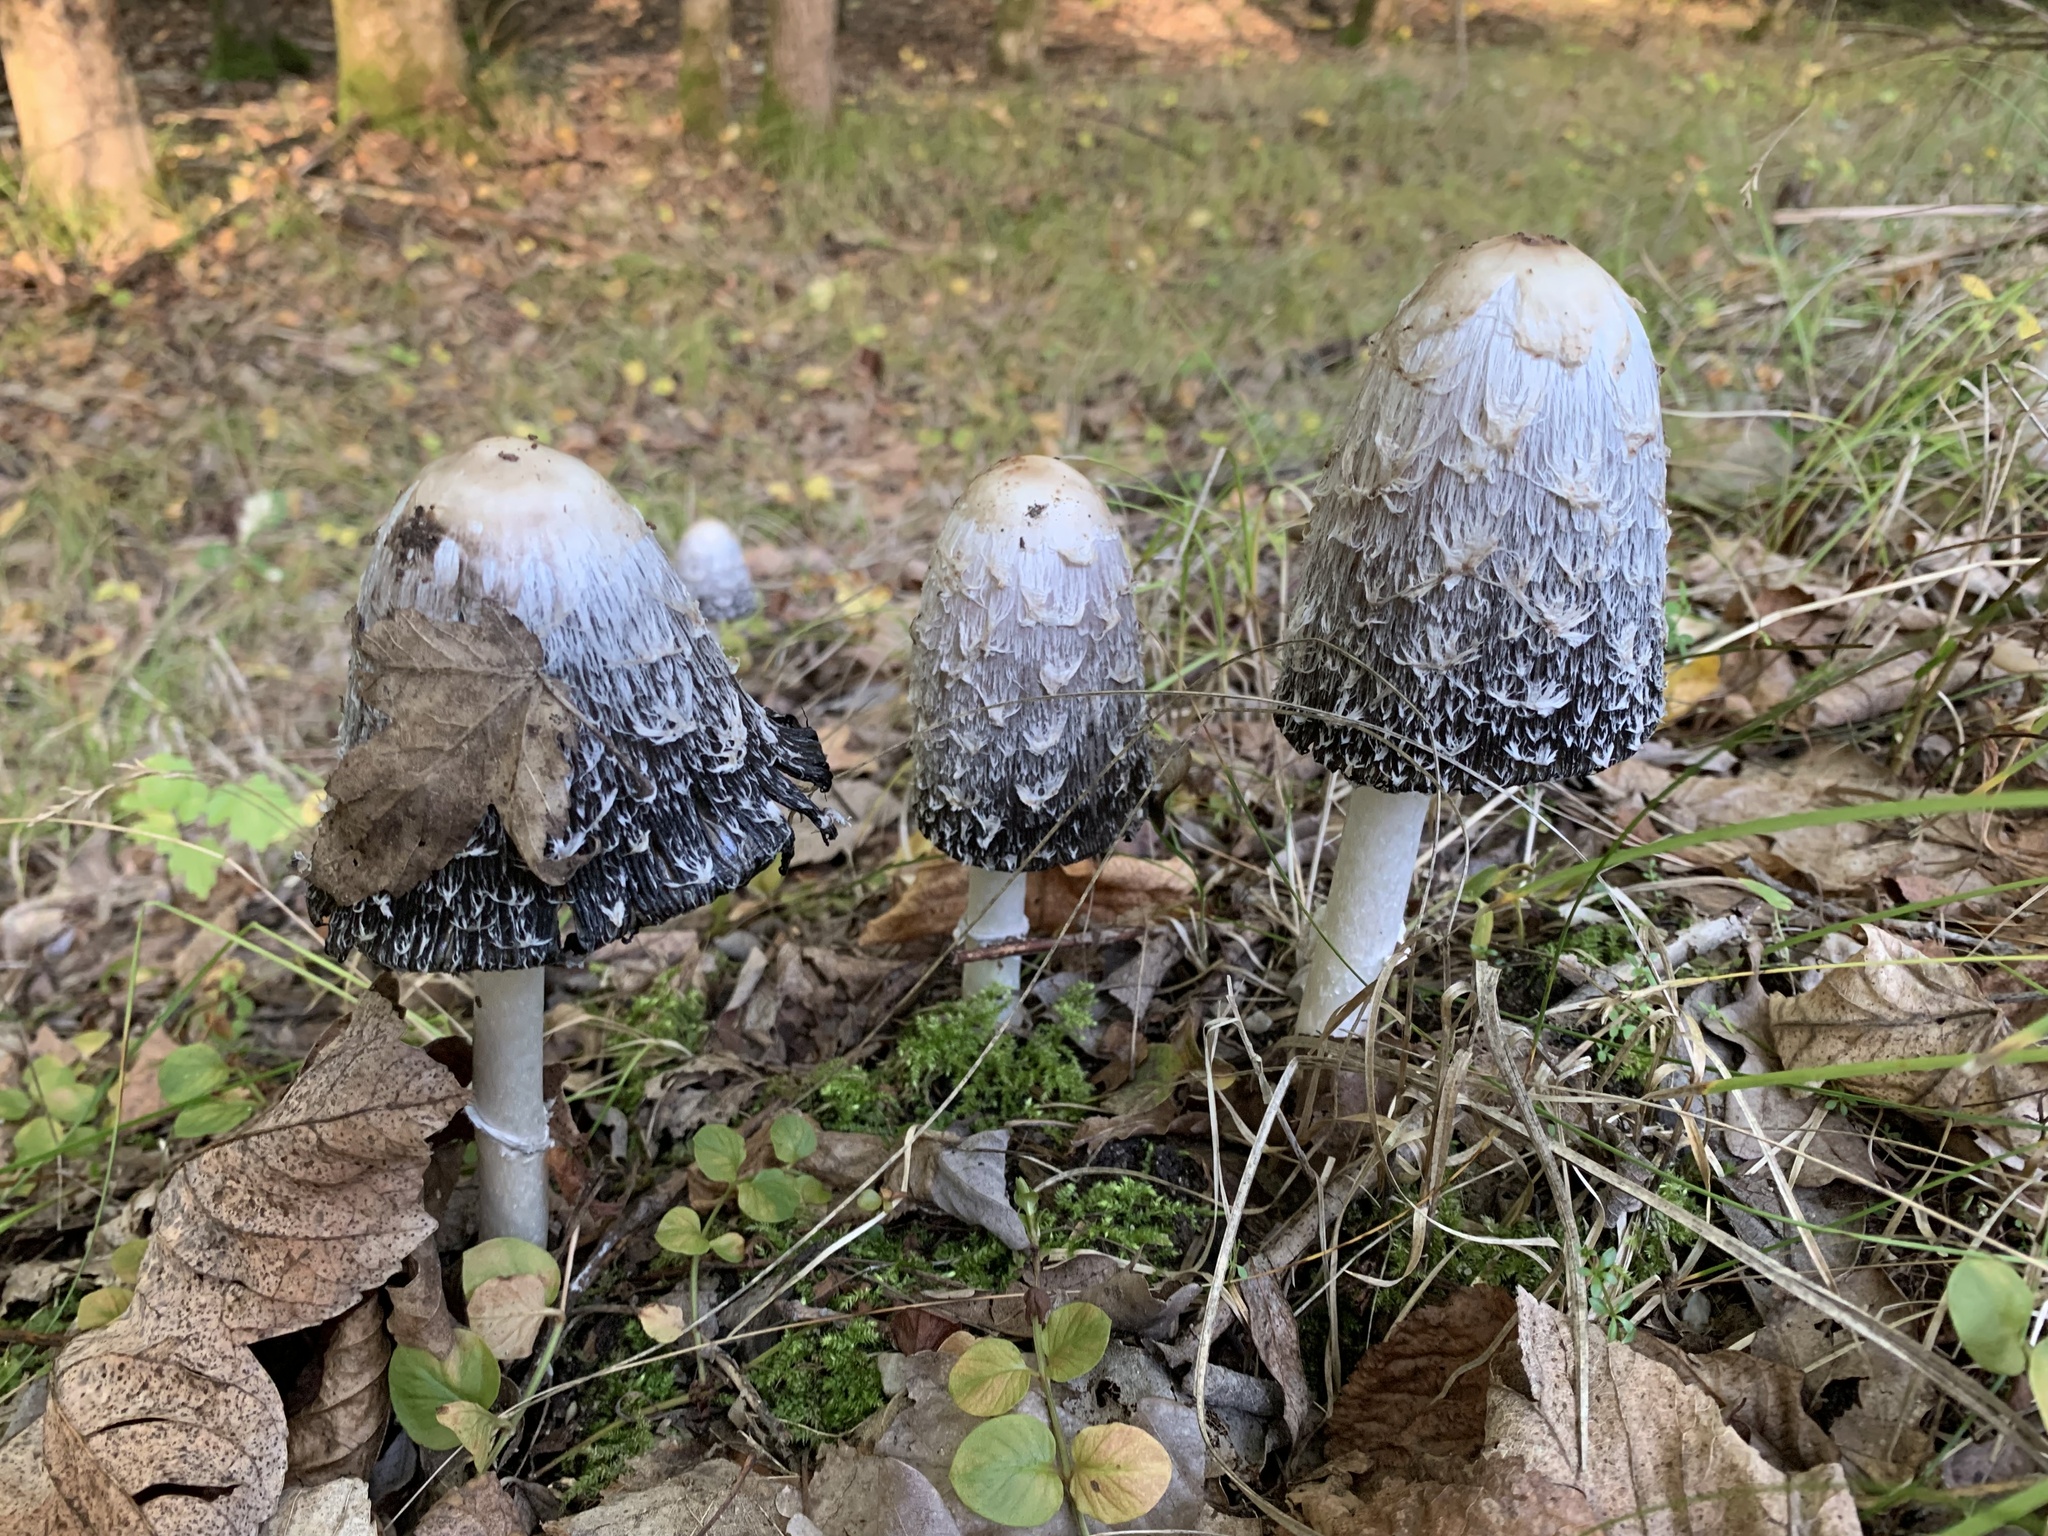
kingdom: Fungi
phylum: Basidiomycota
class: Agaricomycetes
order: Agaricales
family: Agaricaceae
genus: Coprinus
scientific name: Coprinus comatus
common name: Lawyer's wig
